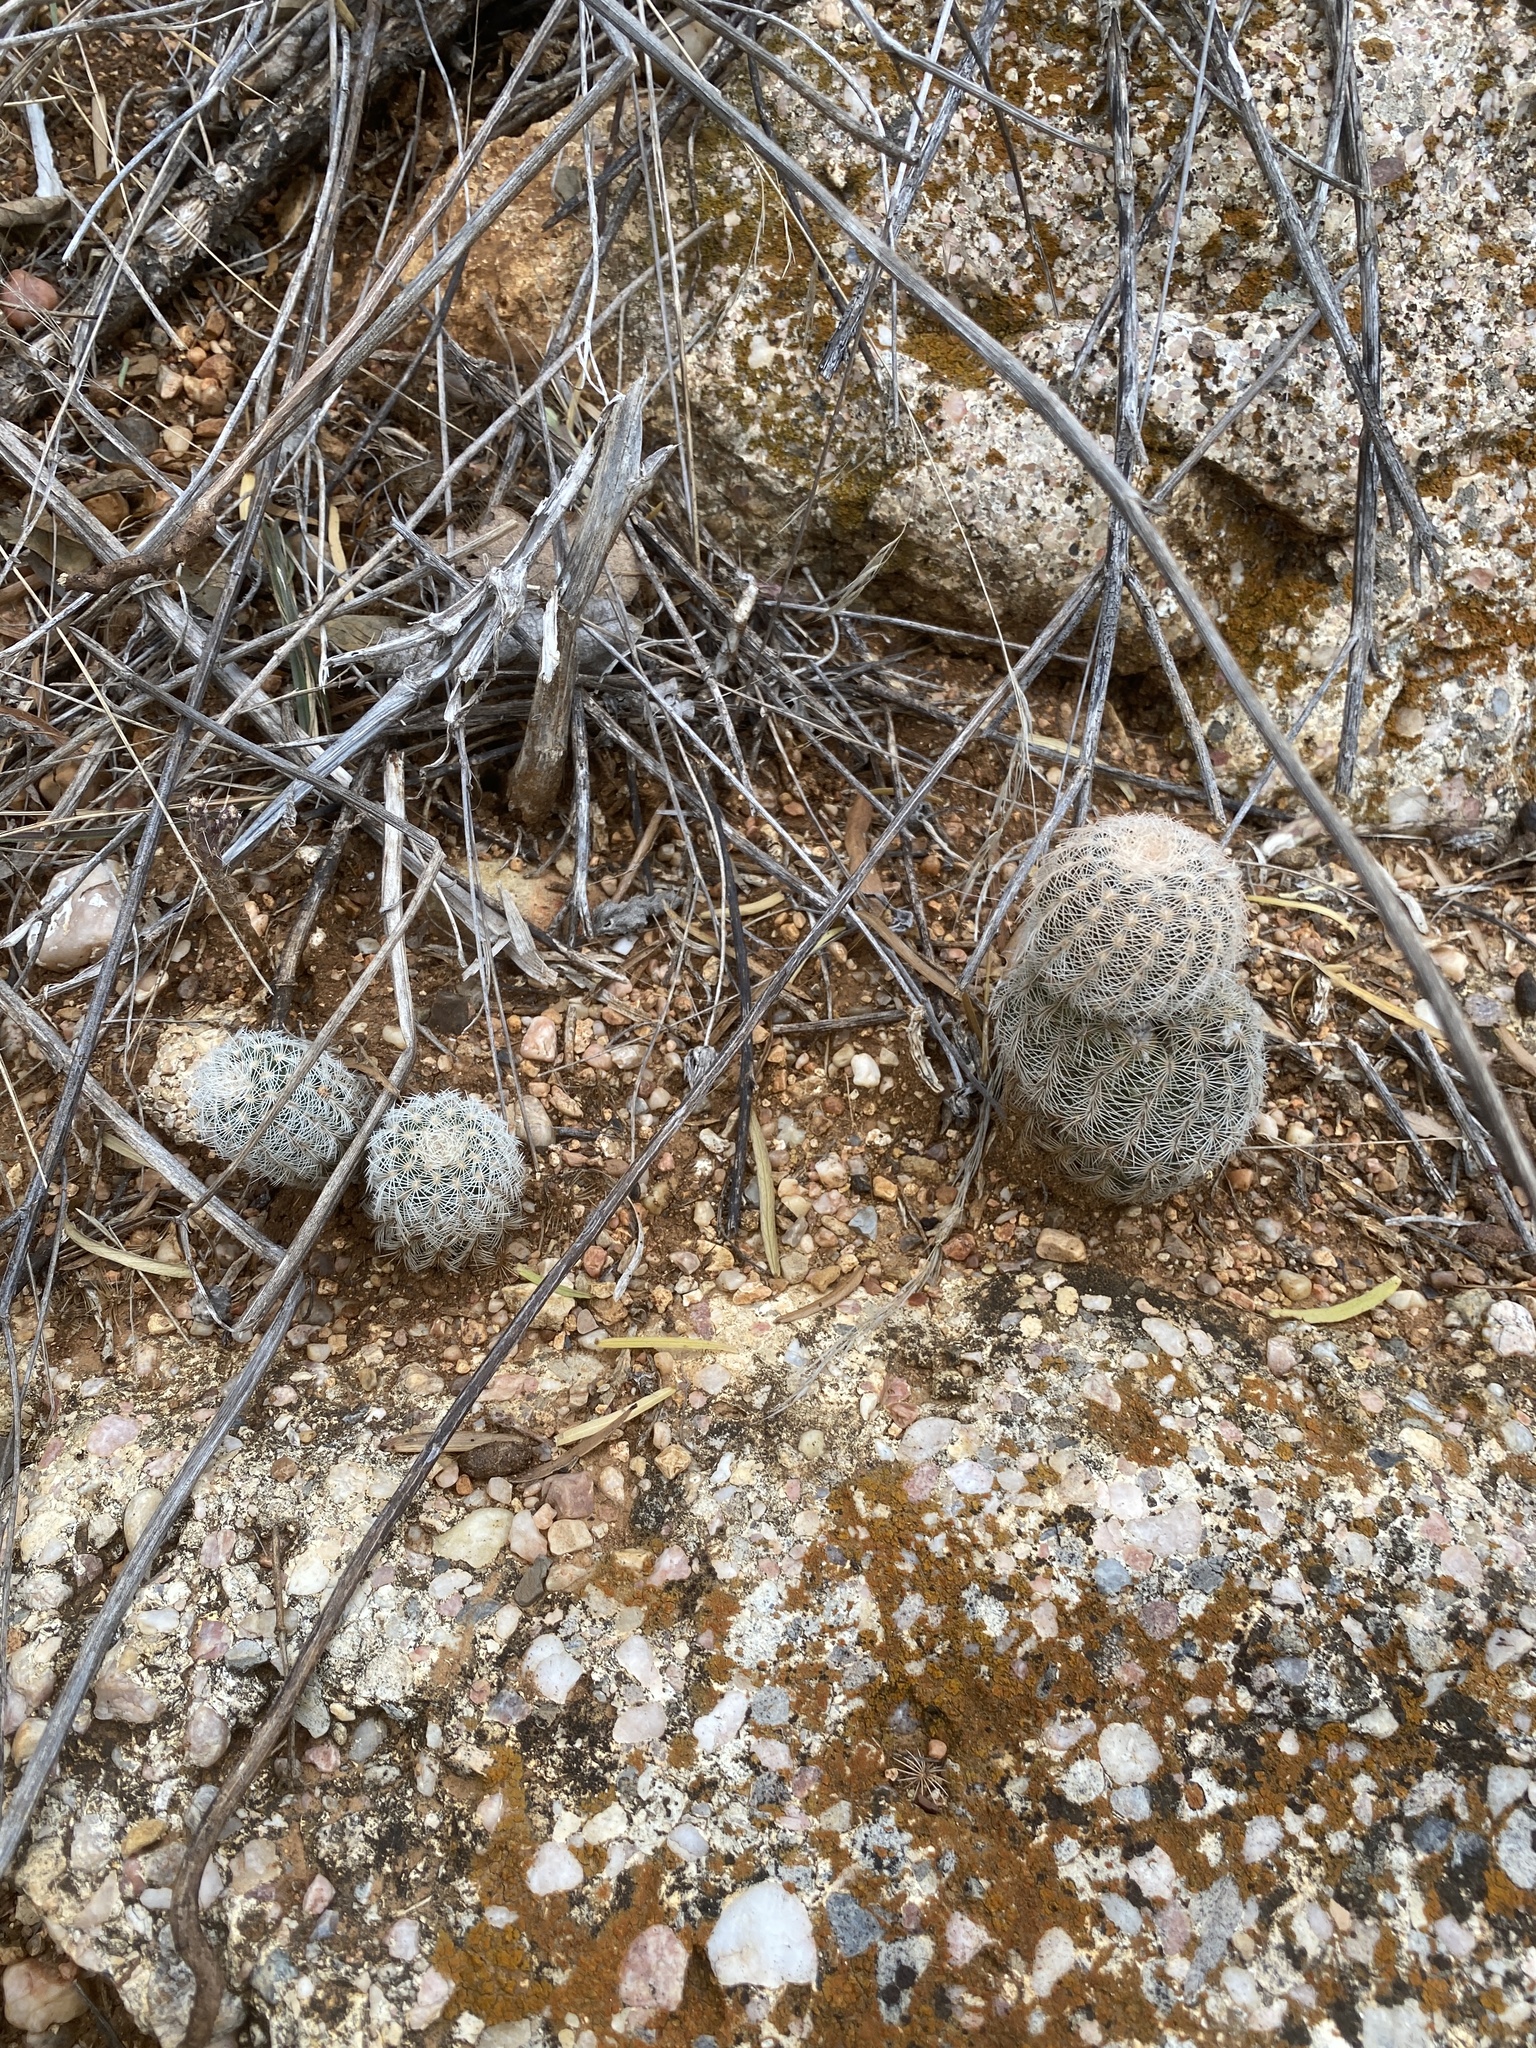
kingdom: Plantae
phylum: Tracheophyta
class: Magnoliopsida
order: Caryophyllales
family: Cactaceae
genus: Echinocereus
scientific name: Echinocereus reichenbachii
